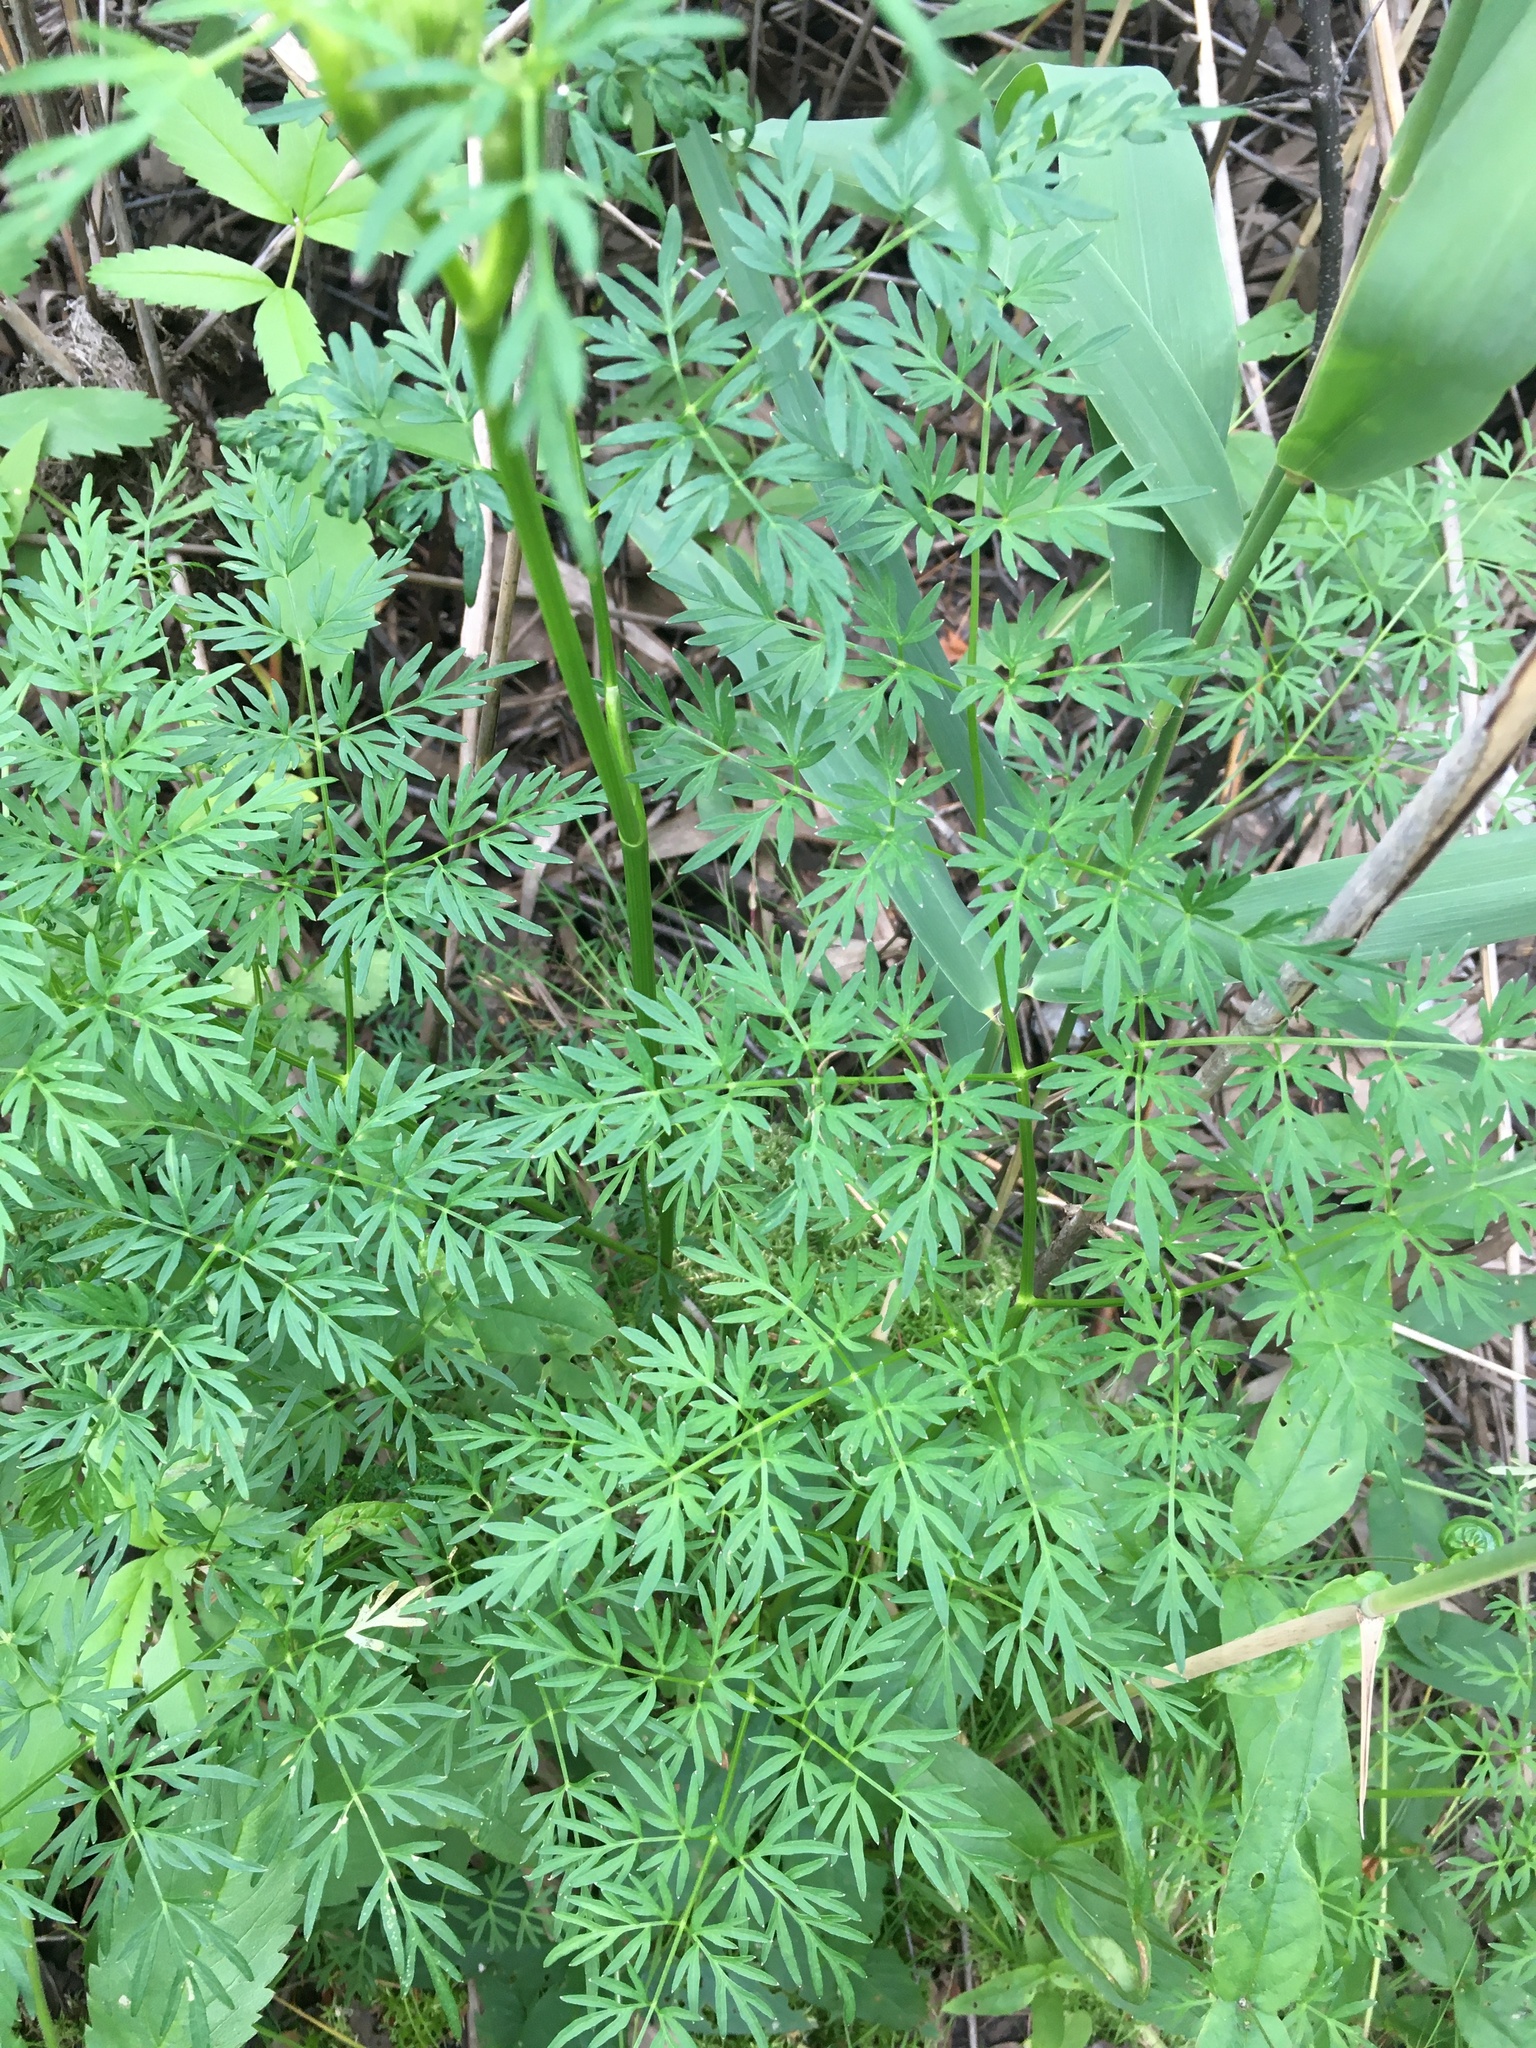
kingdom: Plantae
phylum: Tracheophyta
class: Magnoliopsida
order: Apiales
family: Apiaceae
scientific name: Apiaceae
